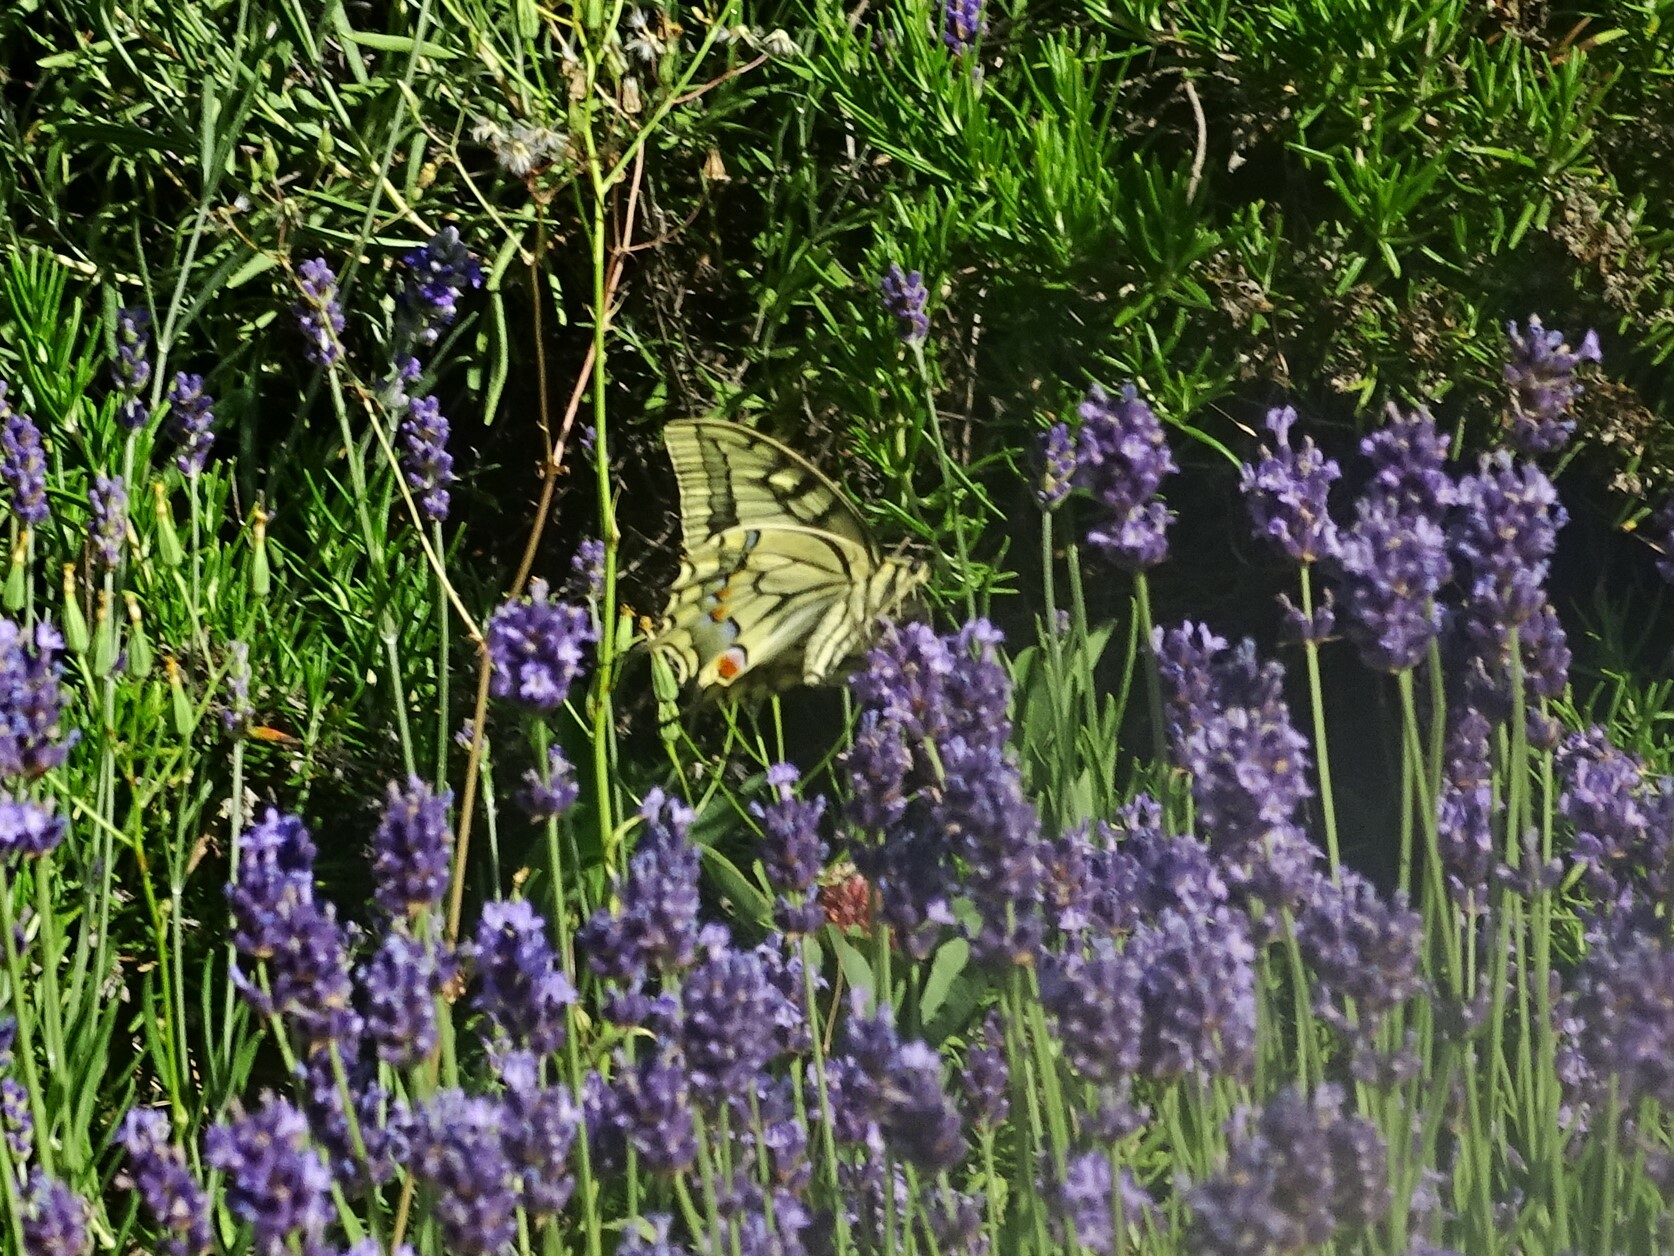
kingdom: Animalia
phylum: Arthropoda
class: Insecta
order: Lepidoptera
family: Papilionidae
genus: Papilio
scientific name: Papilio machaon
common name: Swallowtail
